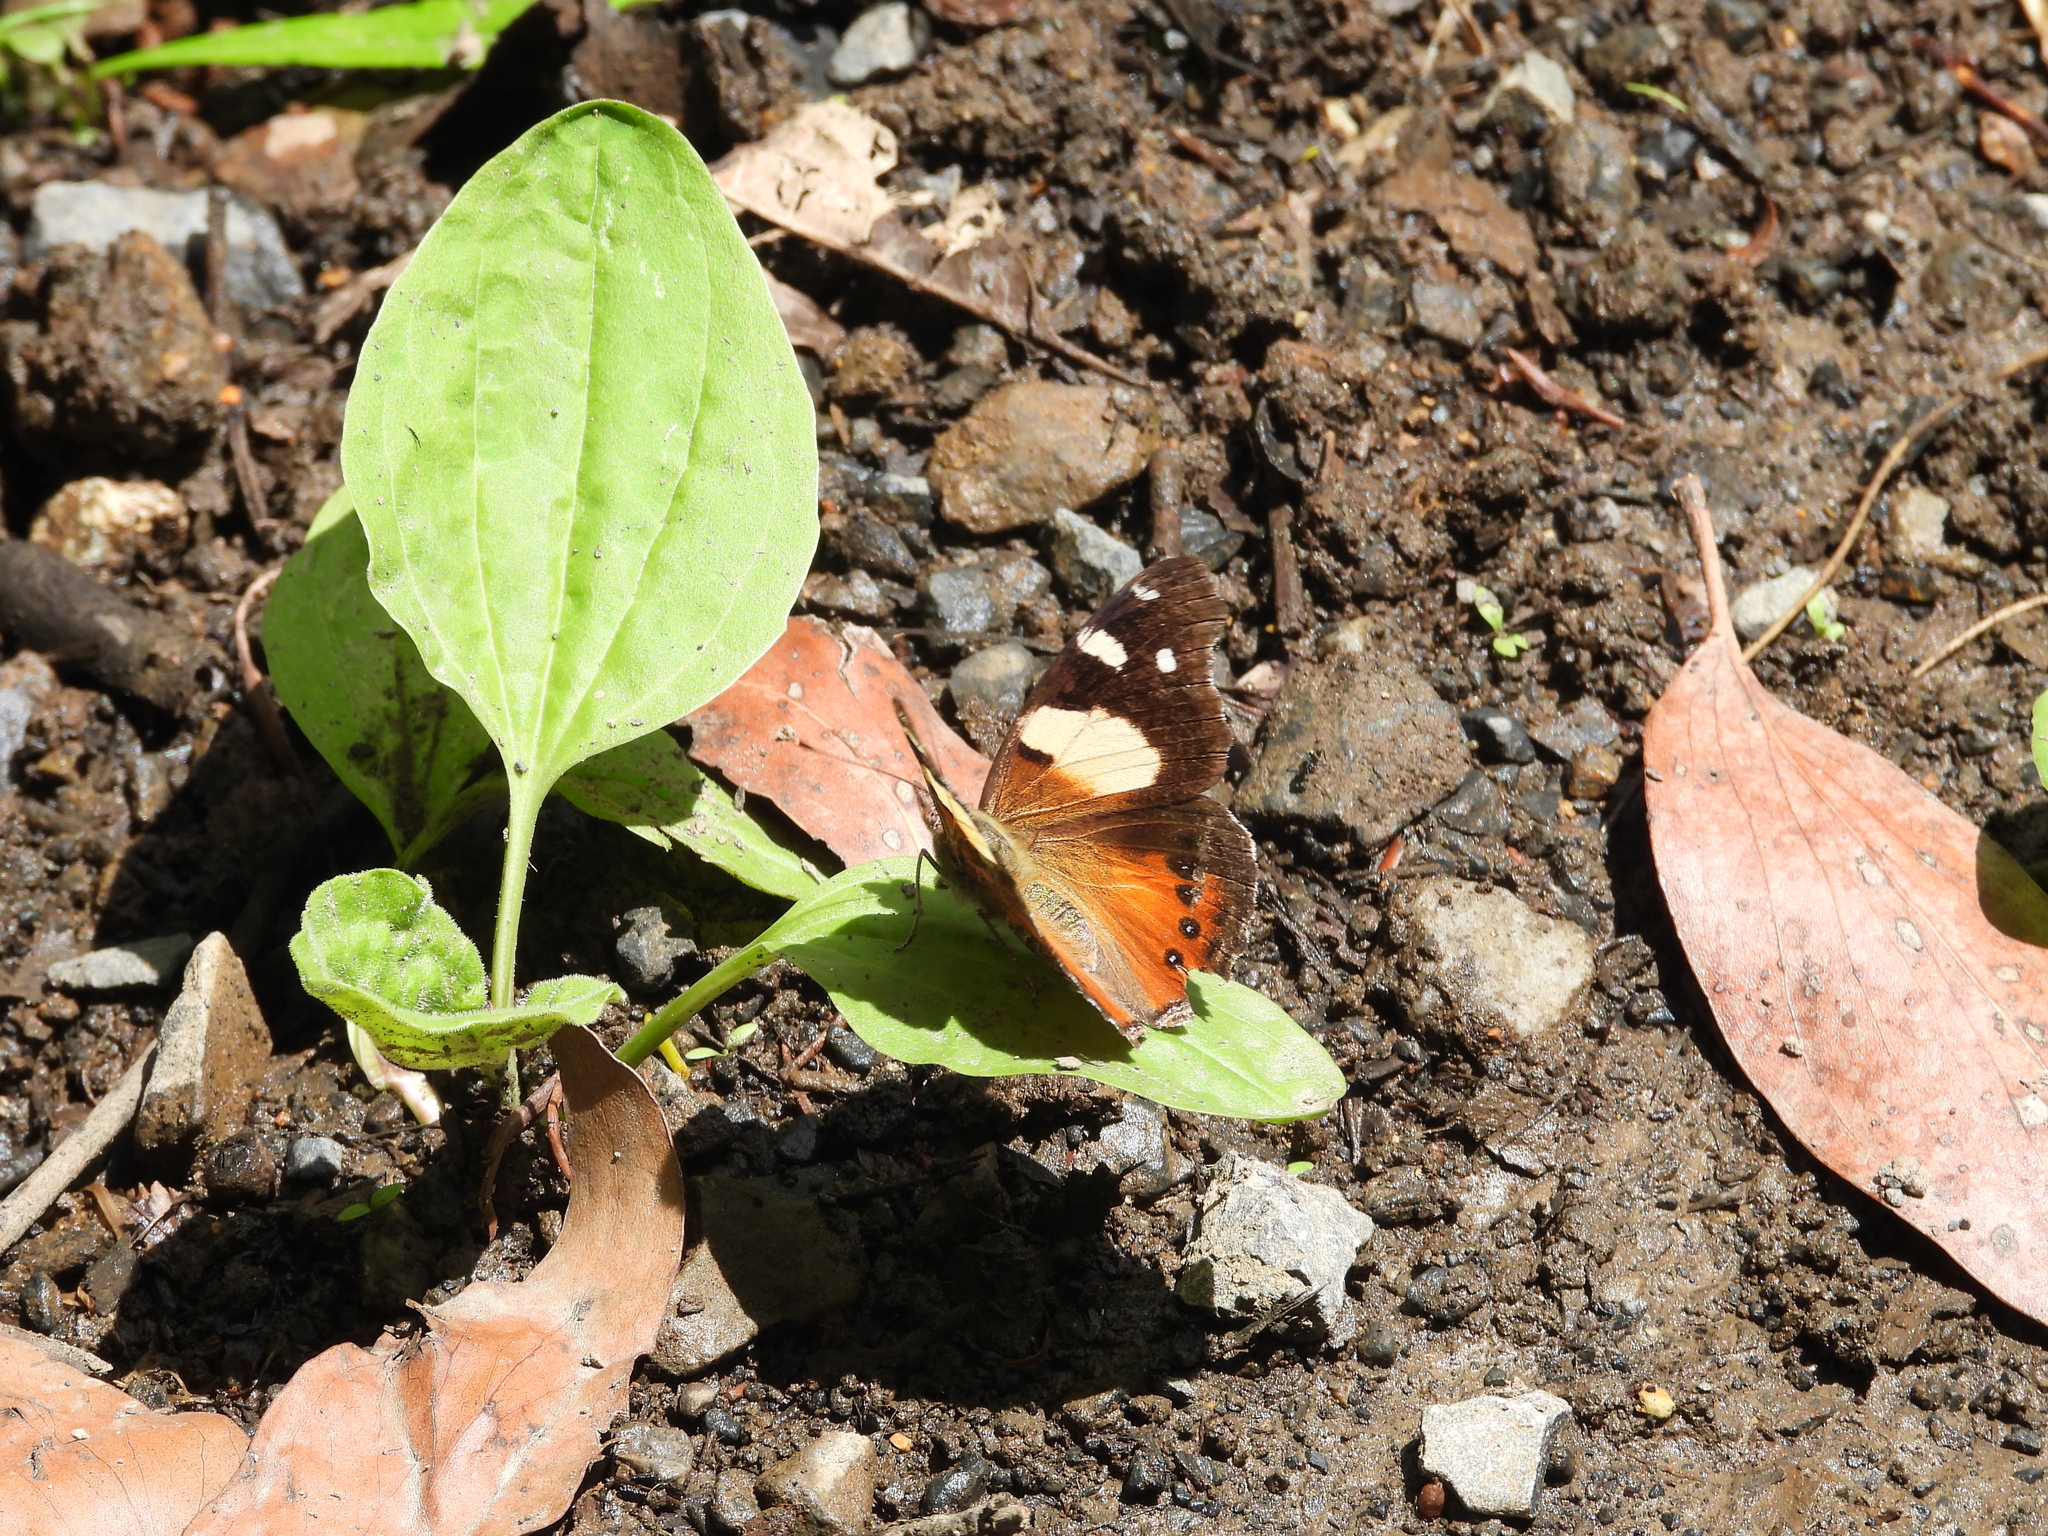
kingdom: Animalia
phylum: Arthropoda
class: Insecta
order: Lepidoptera
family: Nymphalidae
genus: Vanessa
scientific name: Vanessa itea
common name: Yellow admiral
